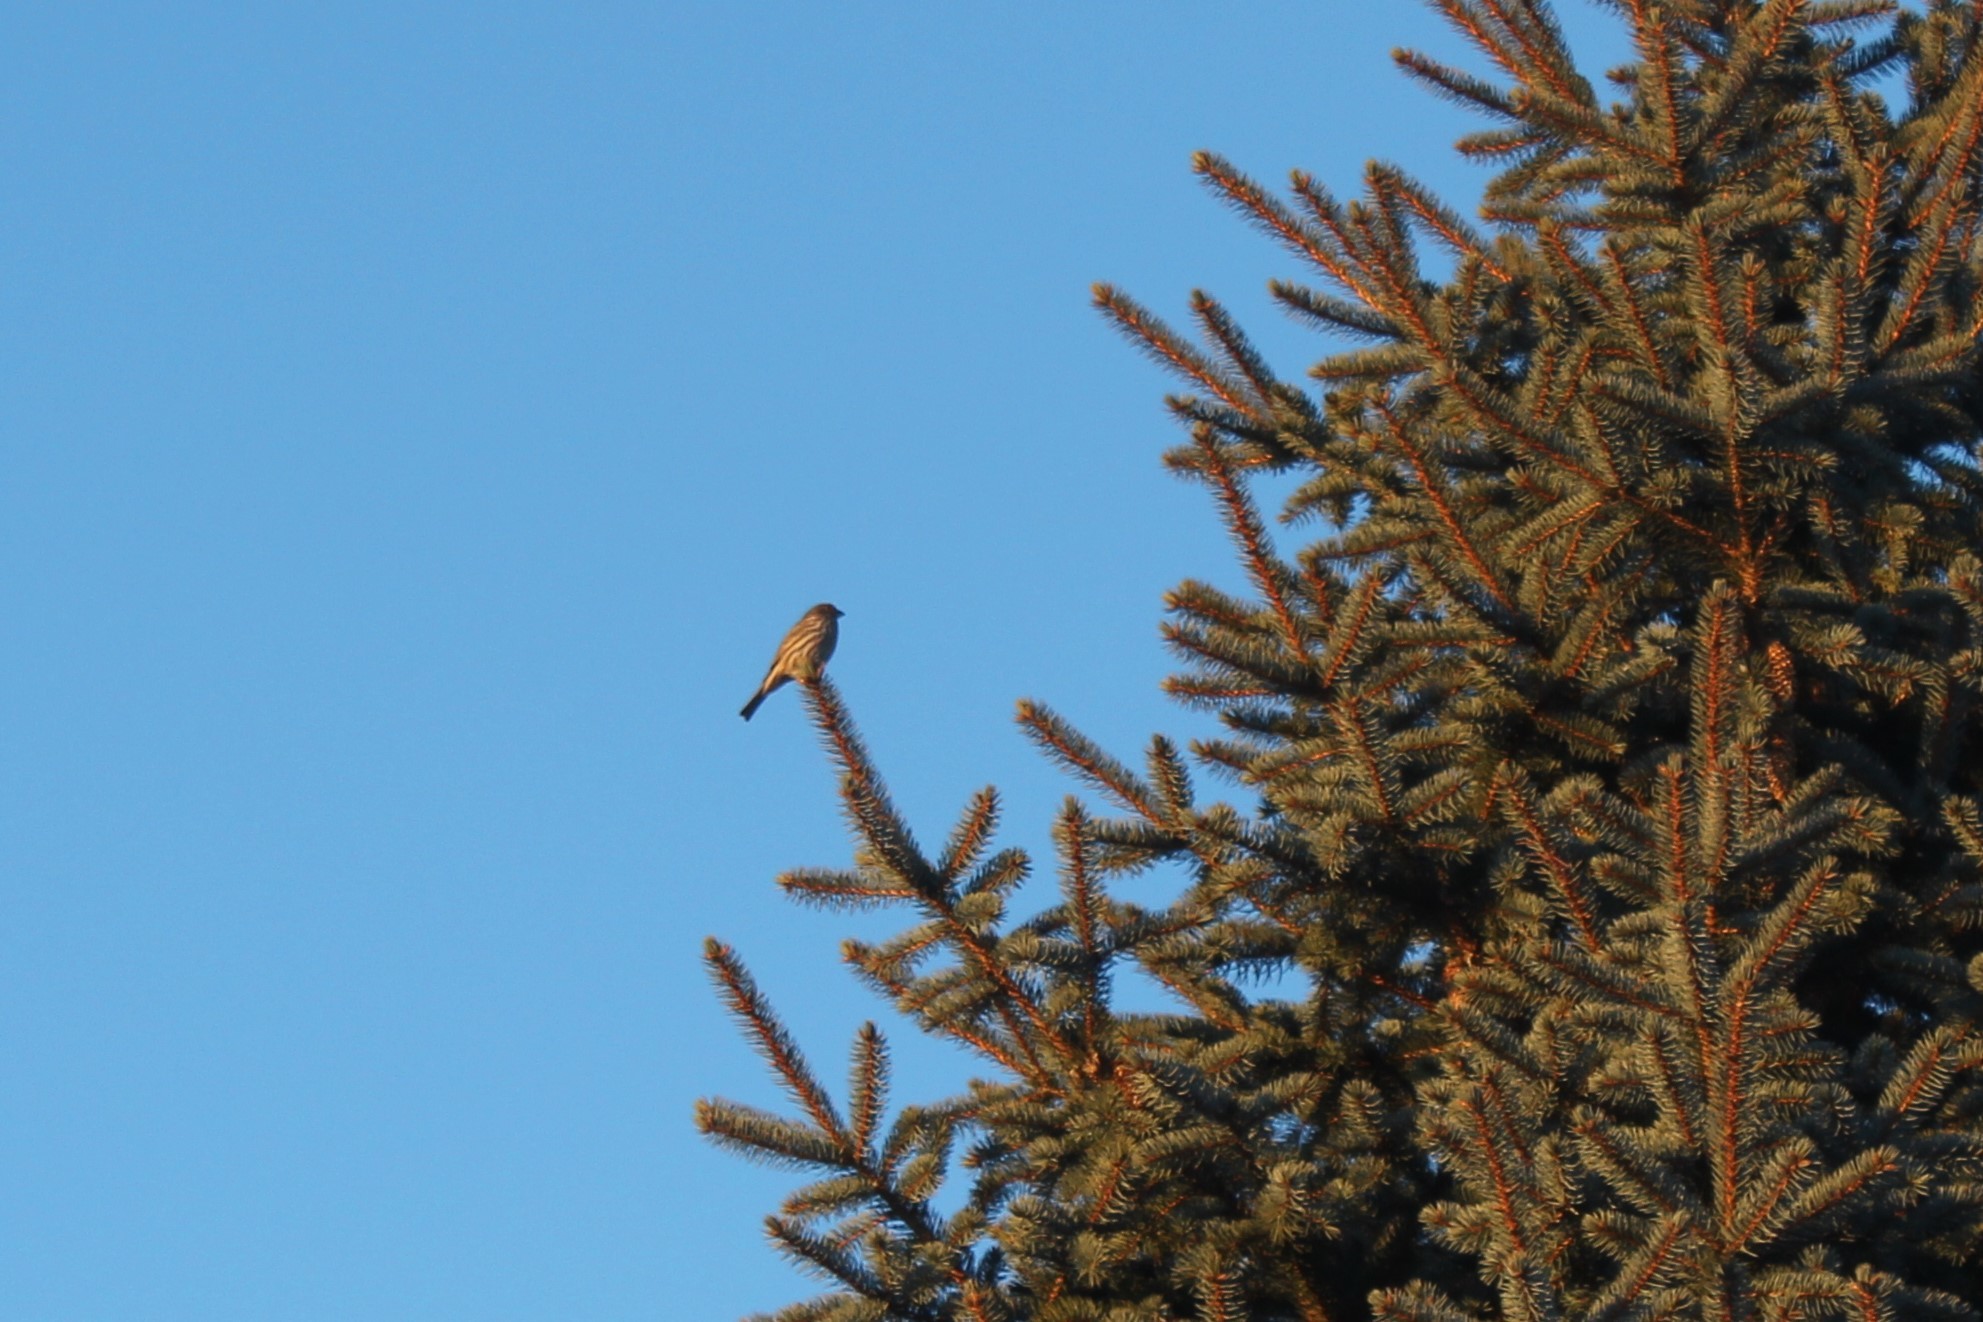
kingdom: Animalia
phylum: Chordata
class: Aves
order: Passeriformes
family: Fringillidae
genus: Haemorhous
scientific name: Haemorhous mexicanus
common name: House finch
